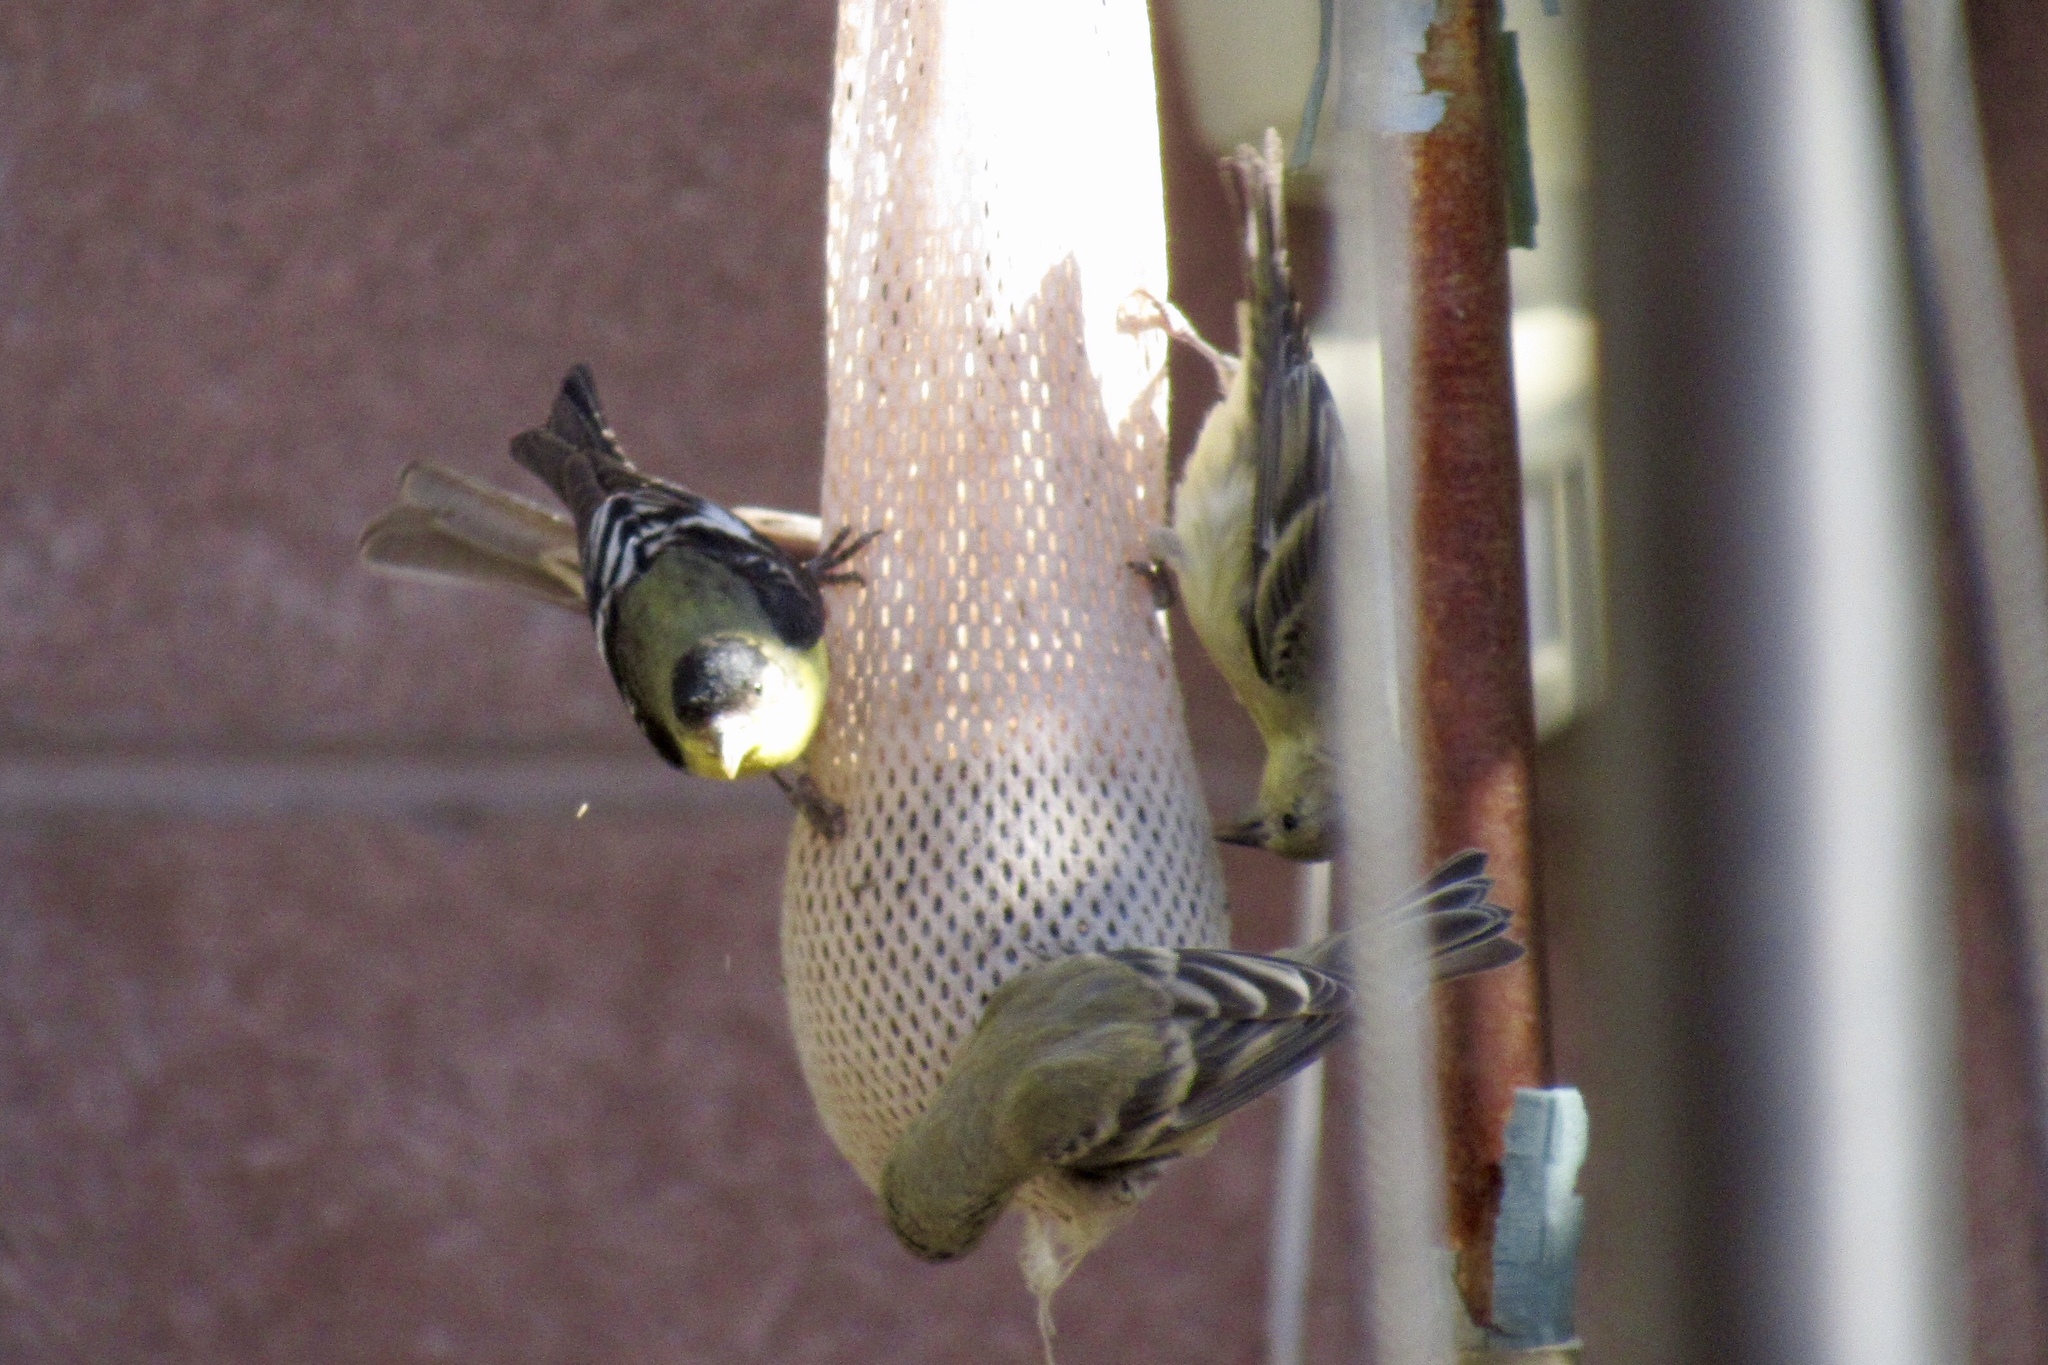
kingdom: Animalia
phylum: Chordata
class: Aves
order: Passeriformes
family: Fringillidae
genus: Spinus
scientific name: Spinus psaltria
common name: Lesser goldfinch
